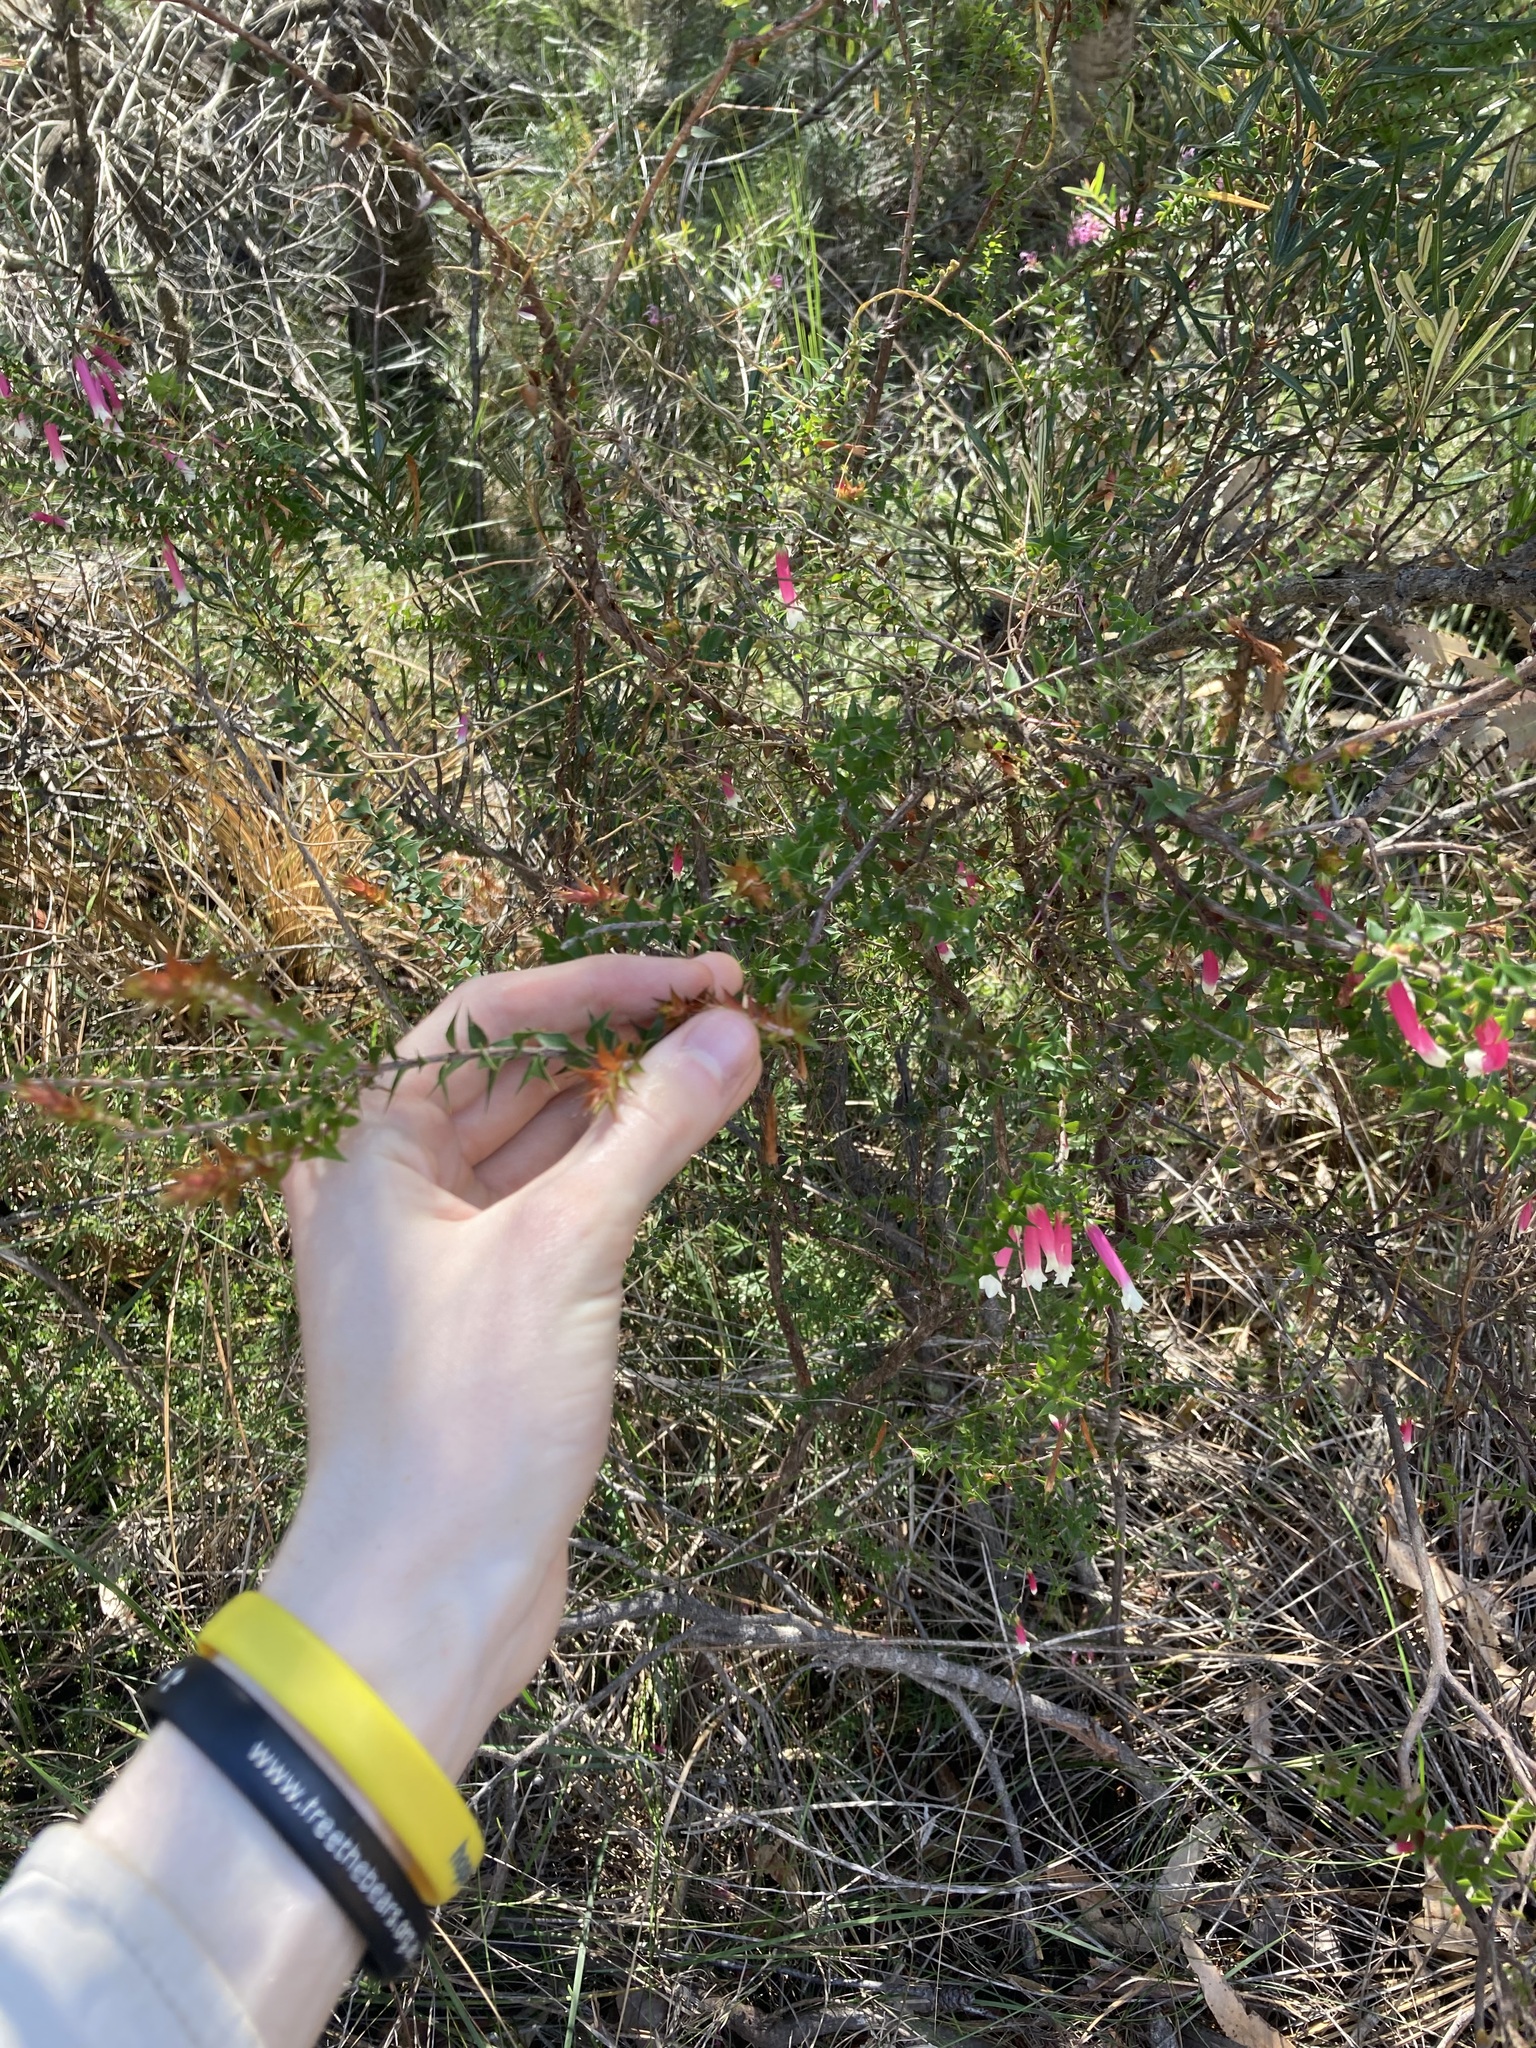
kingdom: Plantae
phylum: Tracheophyta
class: Magnoliopsida
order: Ericales
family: Ericaceae
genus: Epacris
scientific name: Epacris longiflora
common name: Fuchsia-heath
